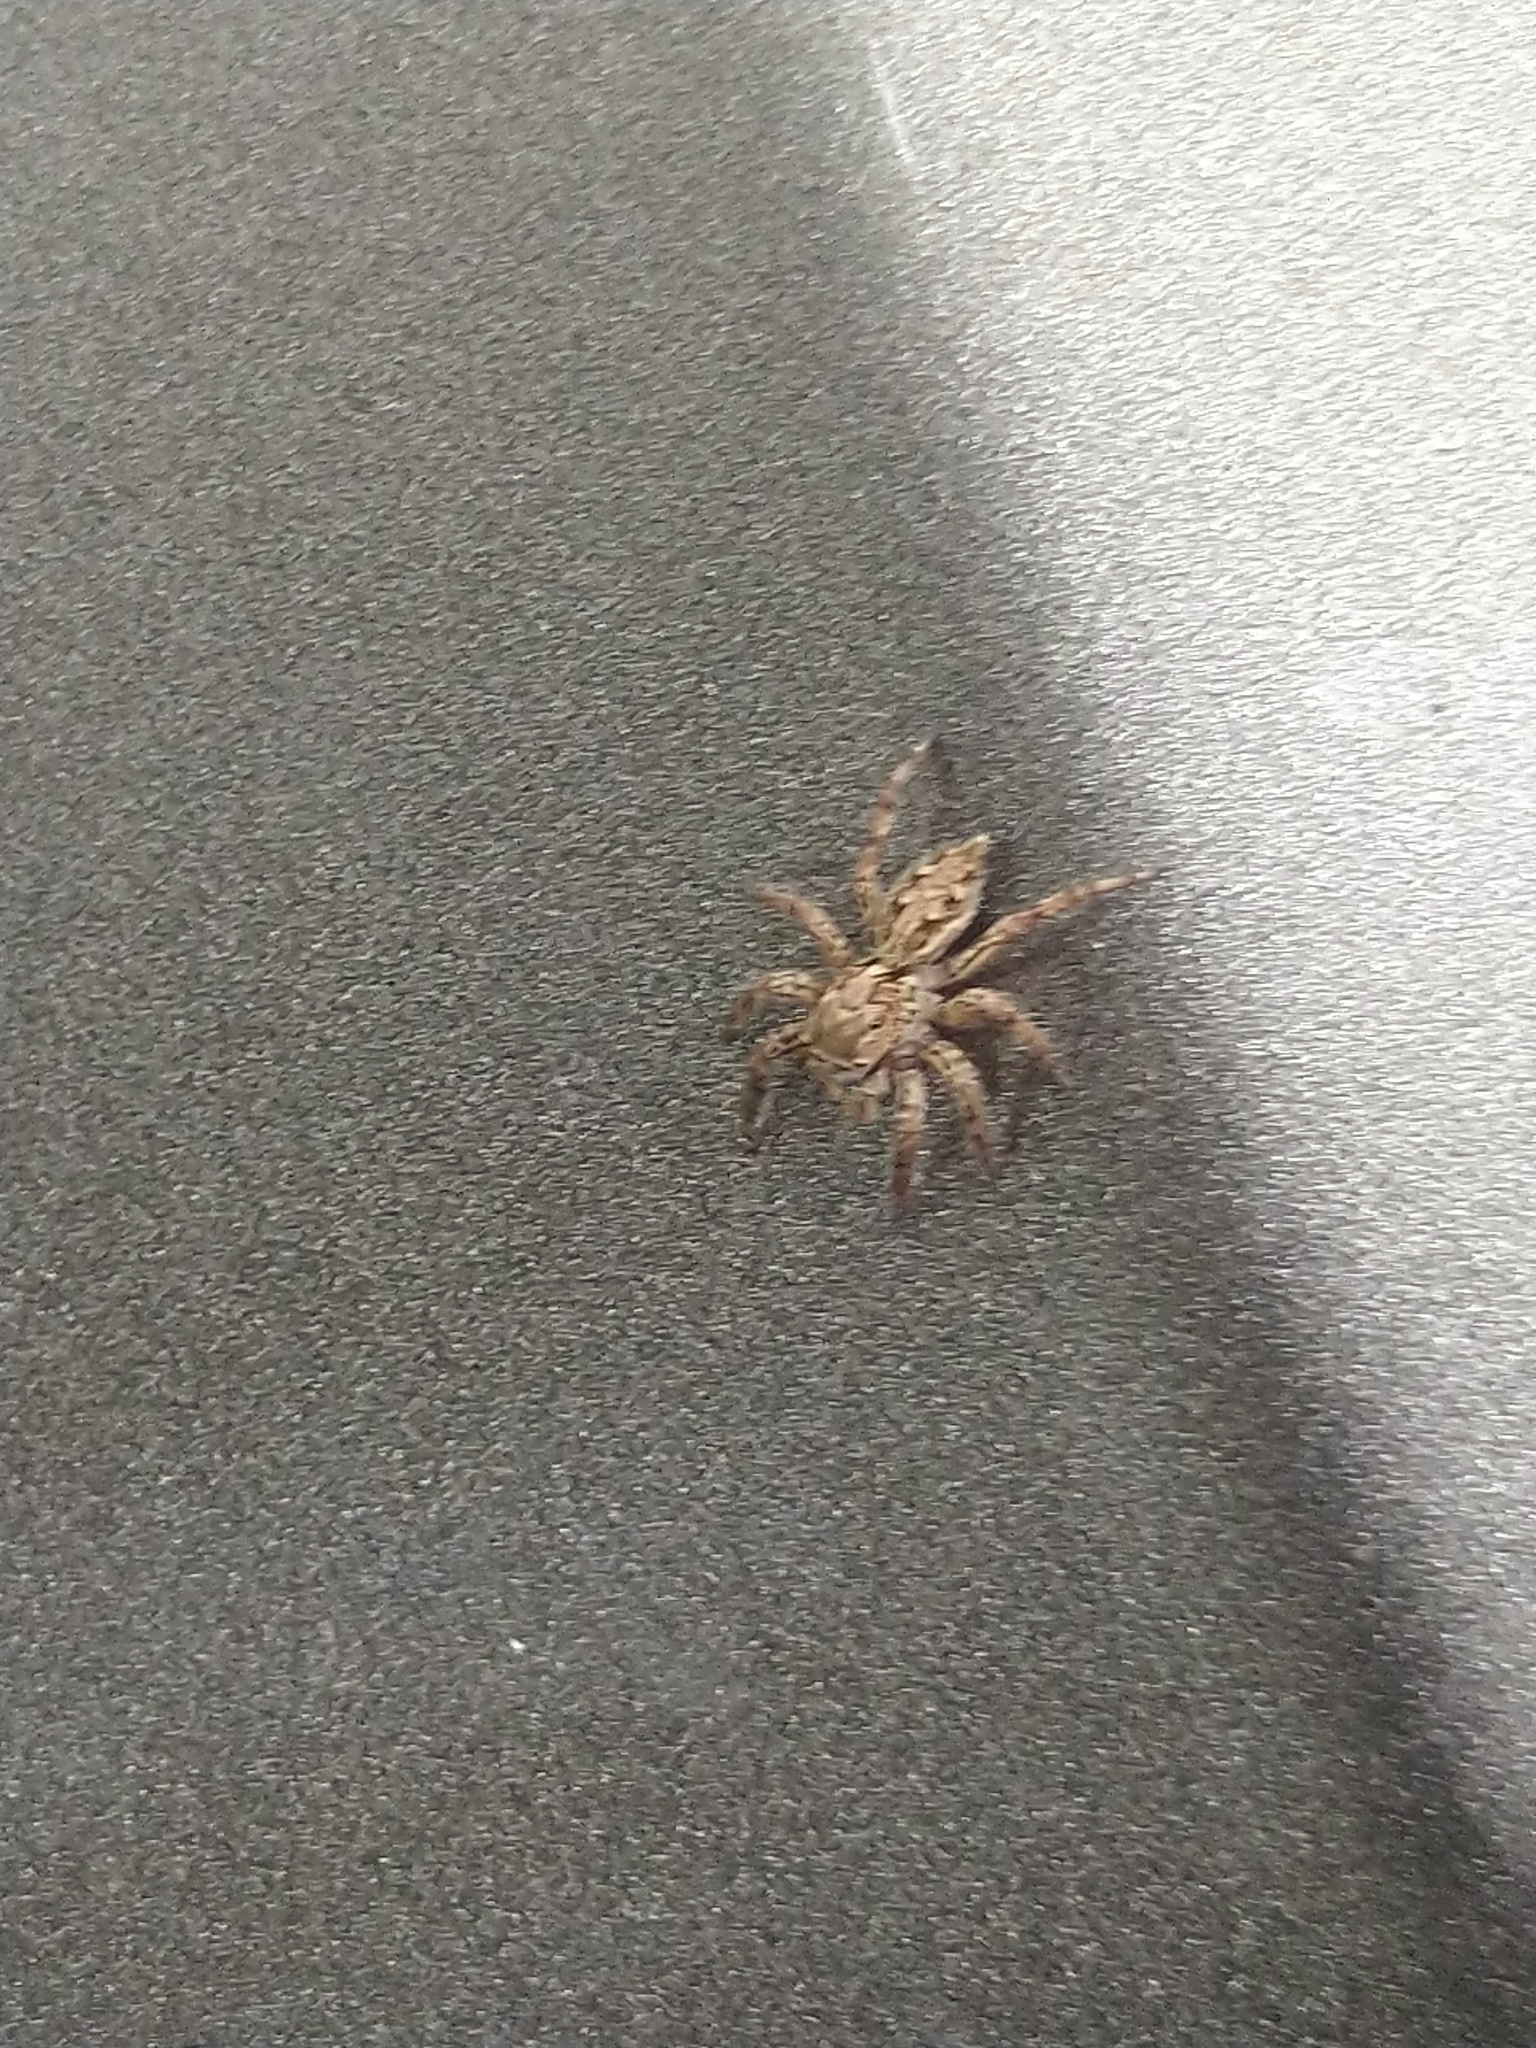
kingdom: Animalia
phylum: Arthropoda
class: Arachnida
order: Araneae
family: Salticidae
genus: Plexippus
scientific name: Plexippus paykulli
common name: Pantropical jumper
